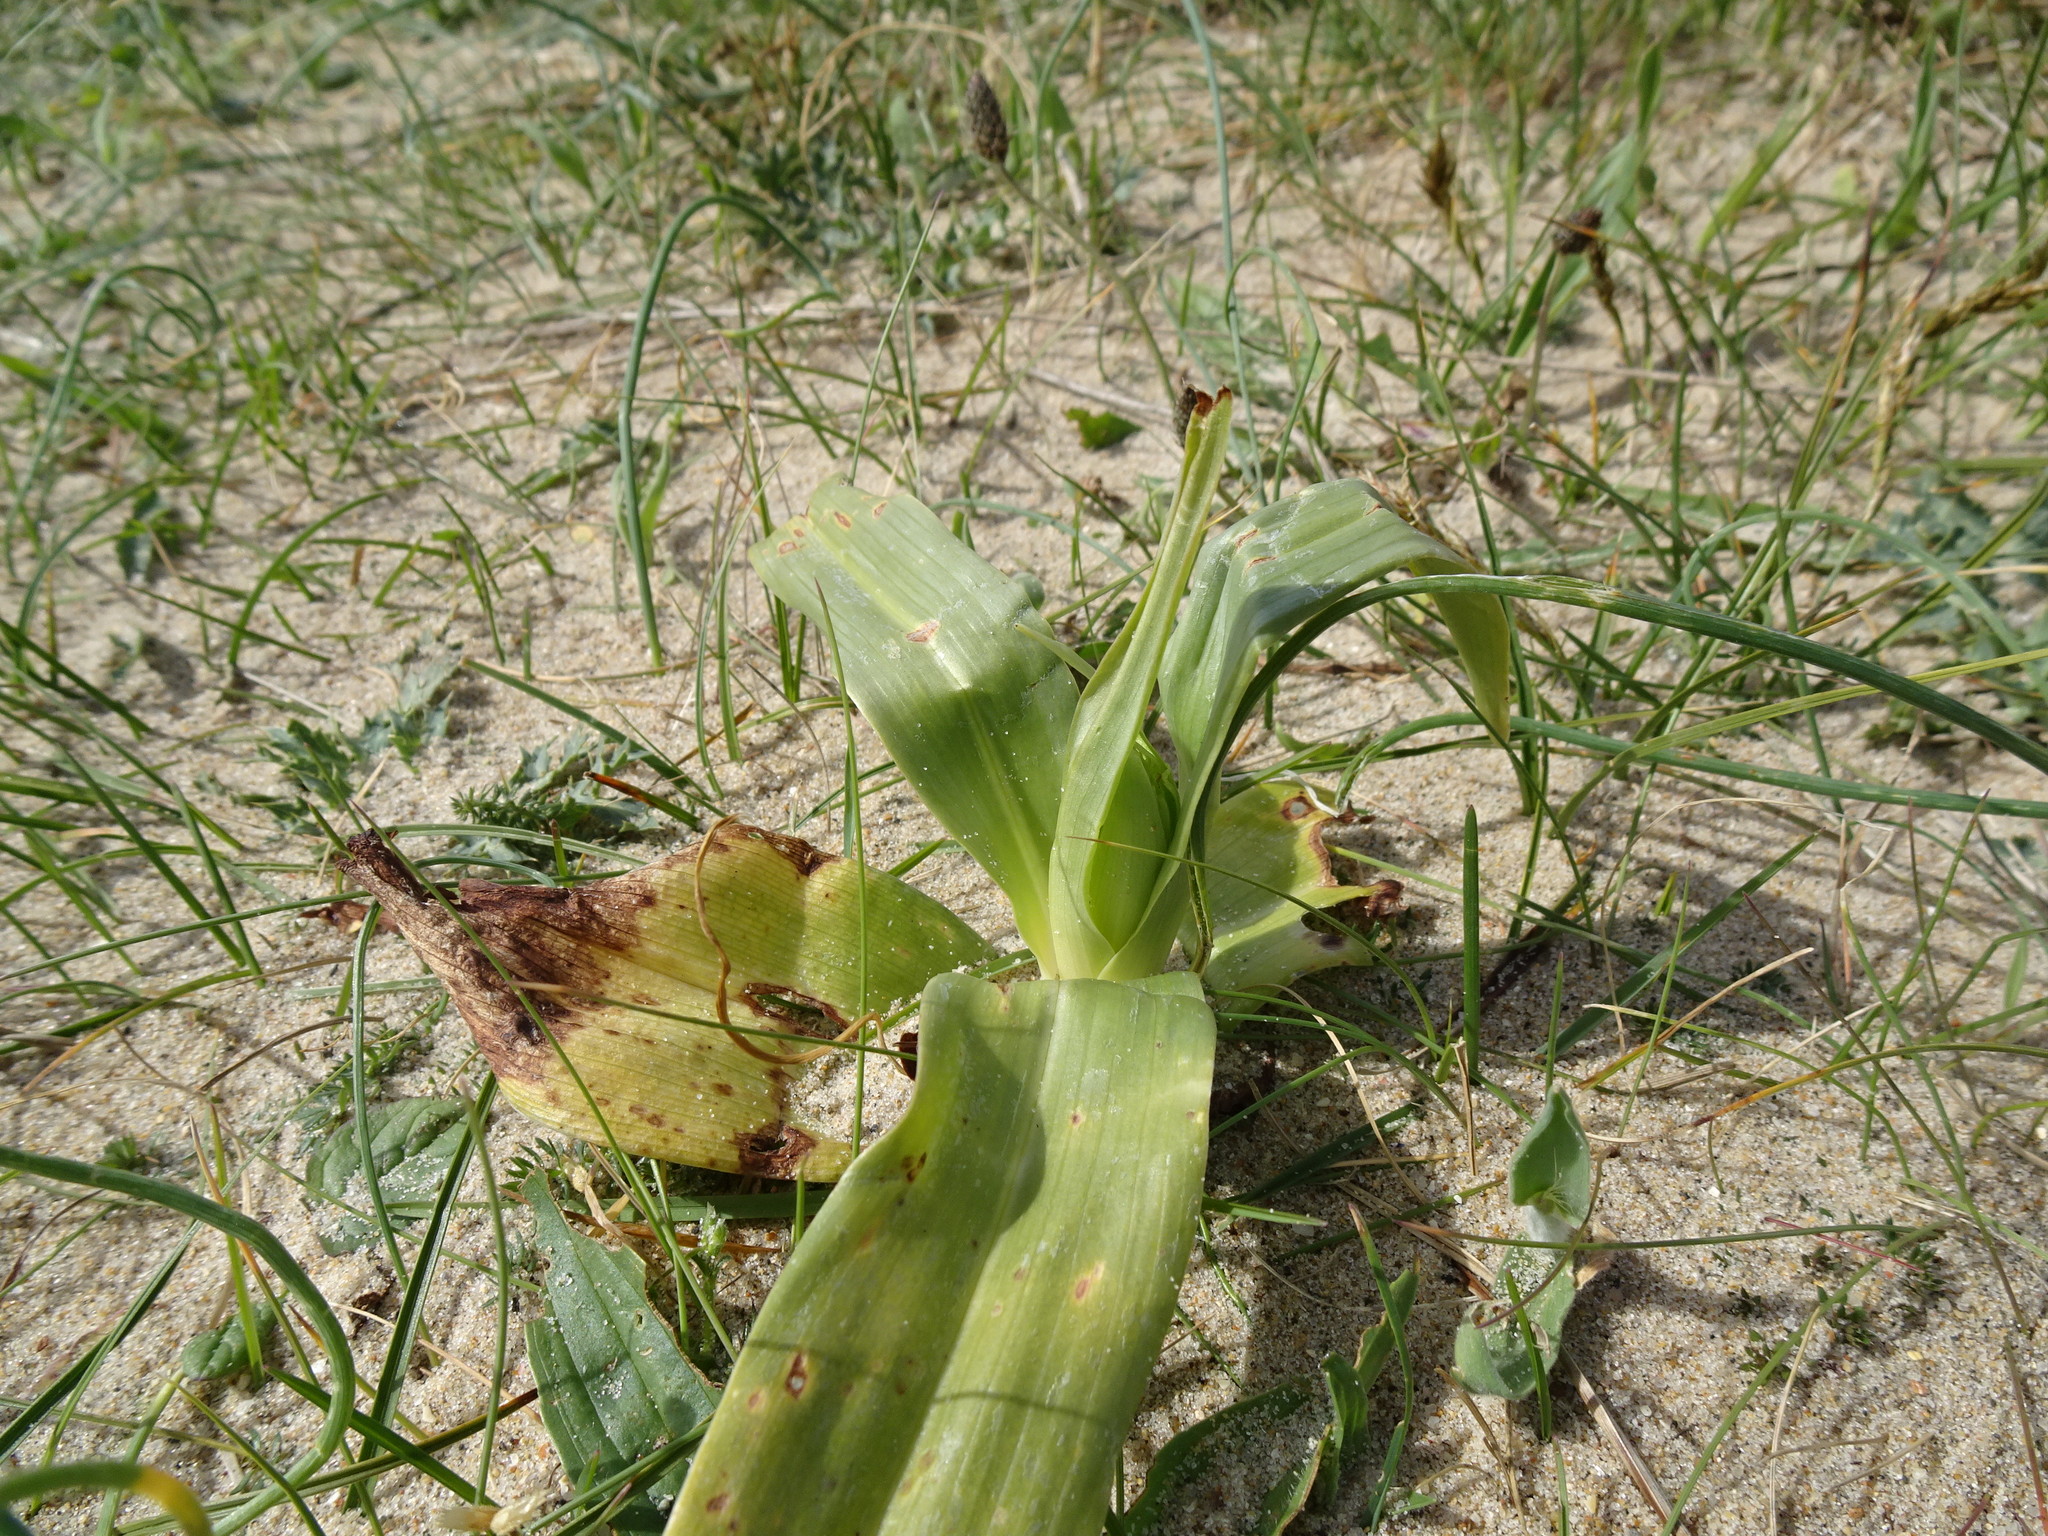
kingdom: Plantae
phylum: Tracheophyta
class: Liliopsida
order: Asparagales
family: Orchidaceae
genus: Himantoglossum
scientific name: Himantoglossum hircinum
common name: Lizard orchid
